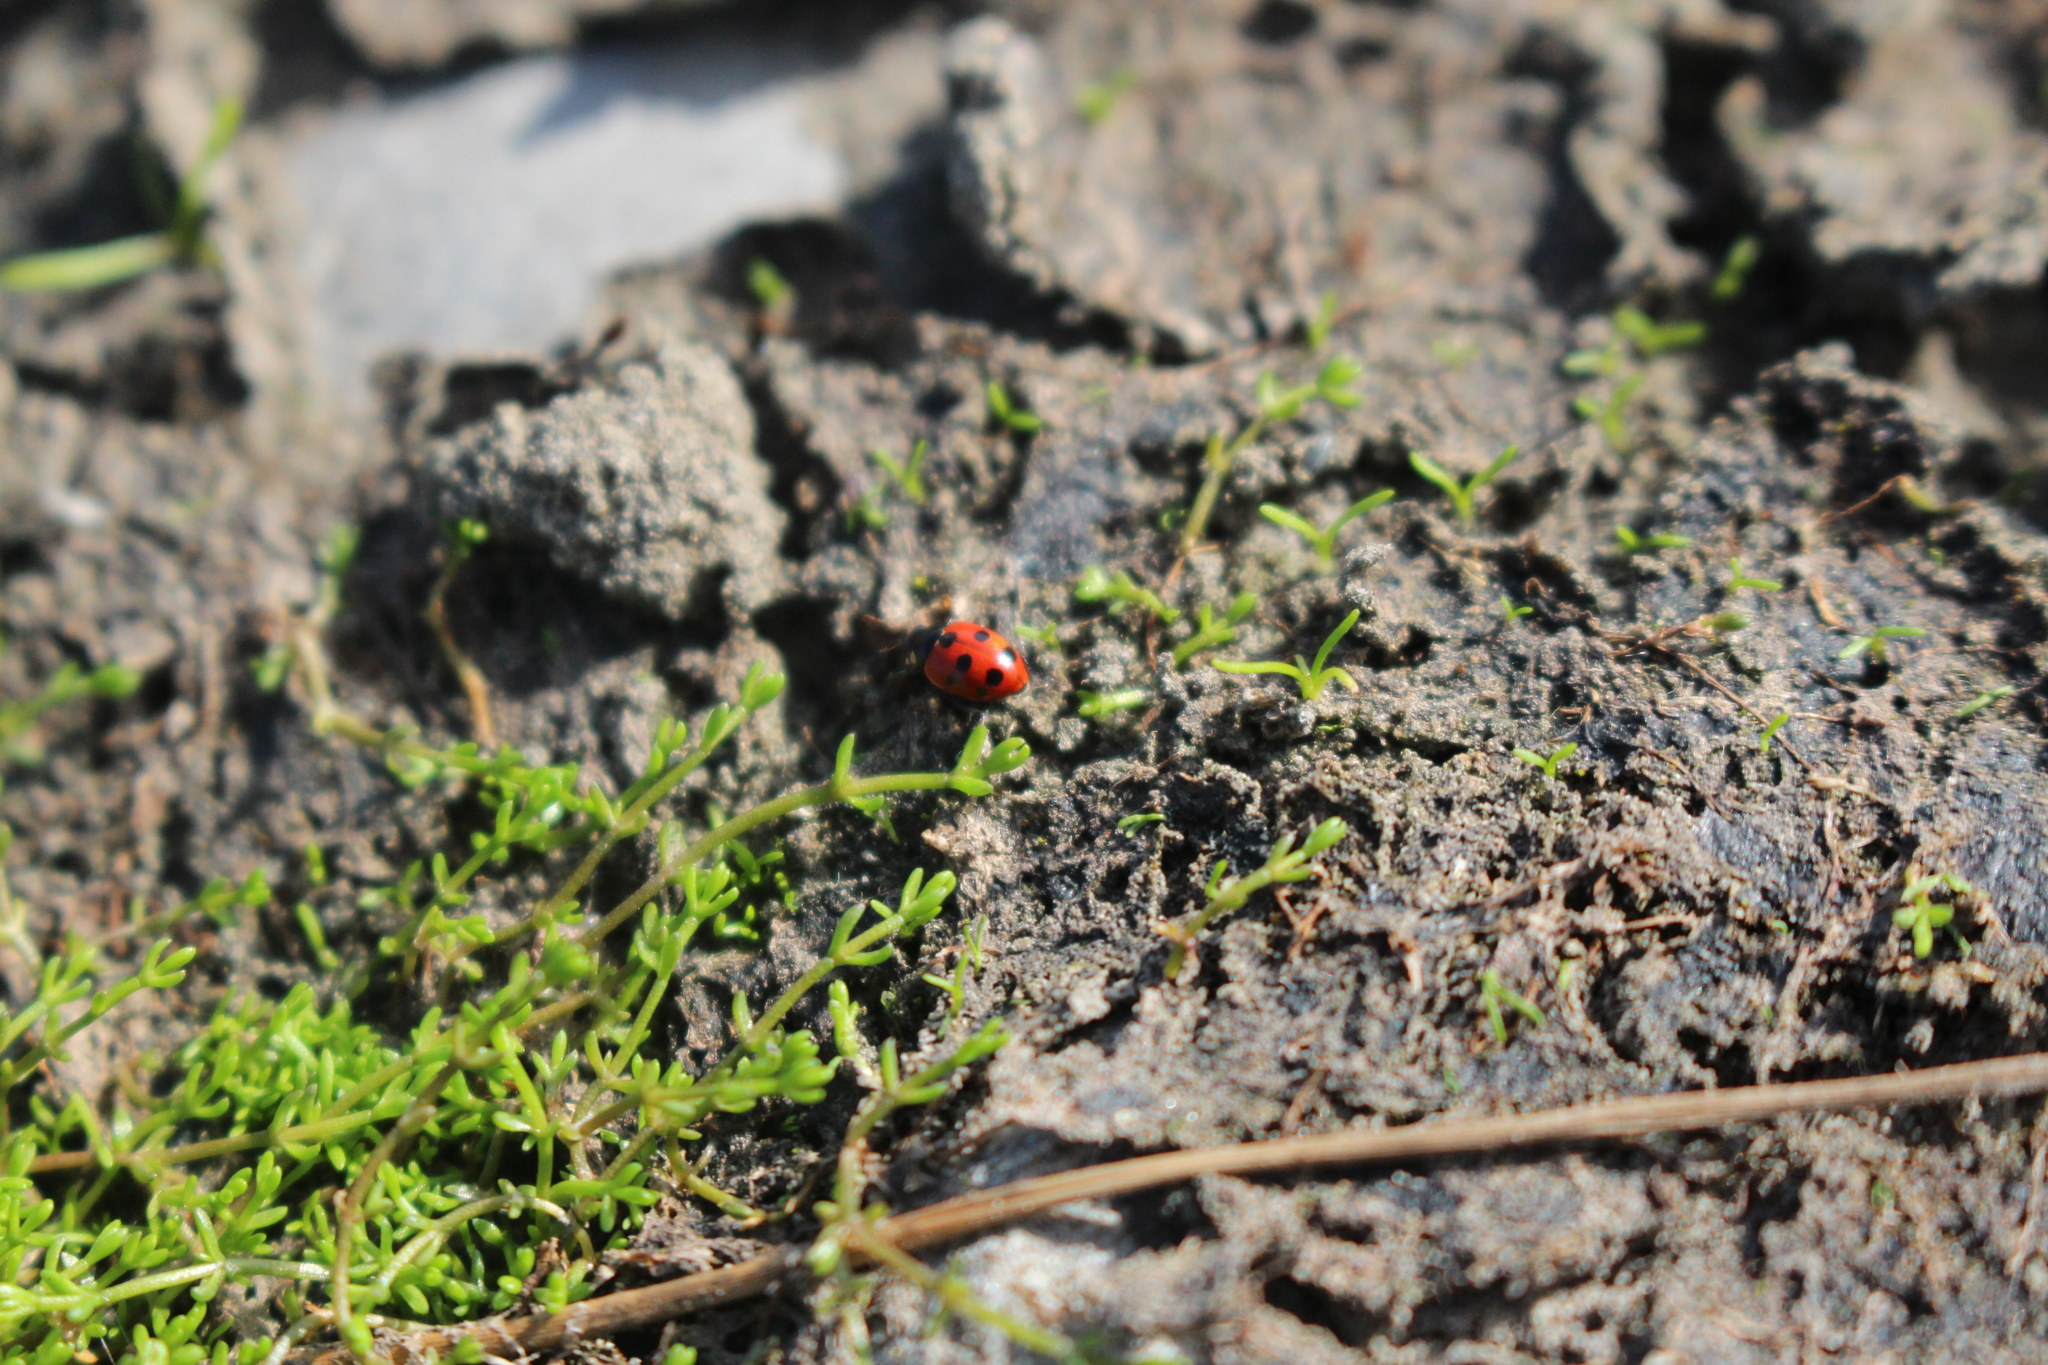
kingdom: Animalia
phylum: Arthropoda
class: Insecta
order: Coleoptera
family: Coccinellidae
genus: Coccinella
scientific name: Coccinella undecimpunctata
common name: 11-spot ladybird
